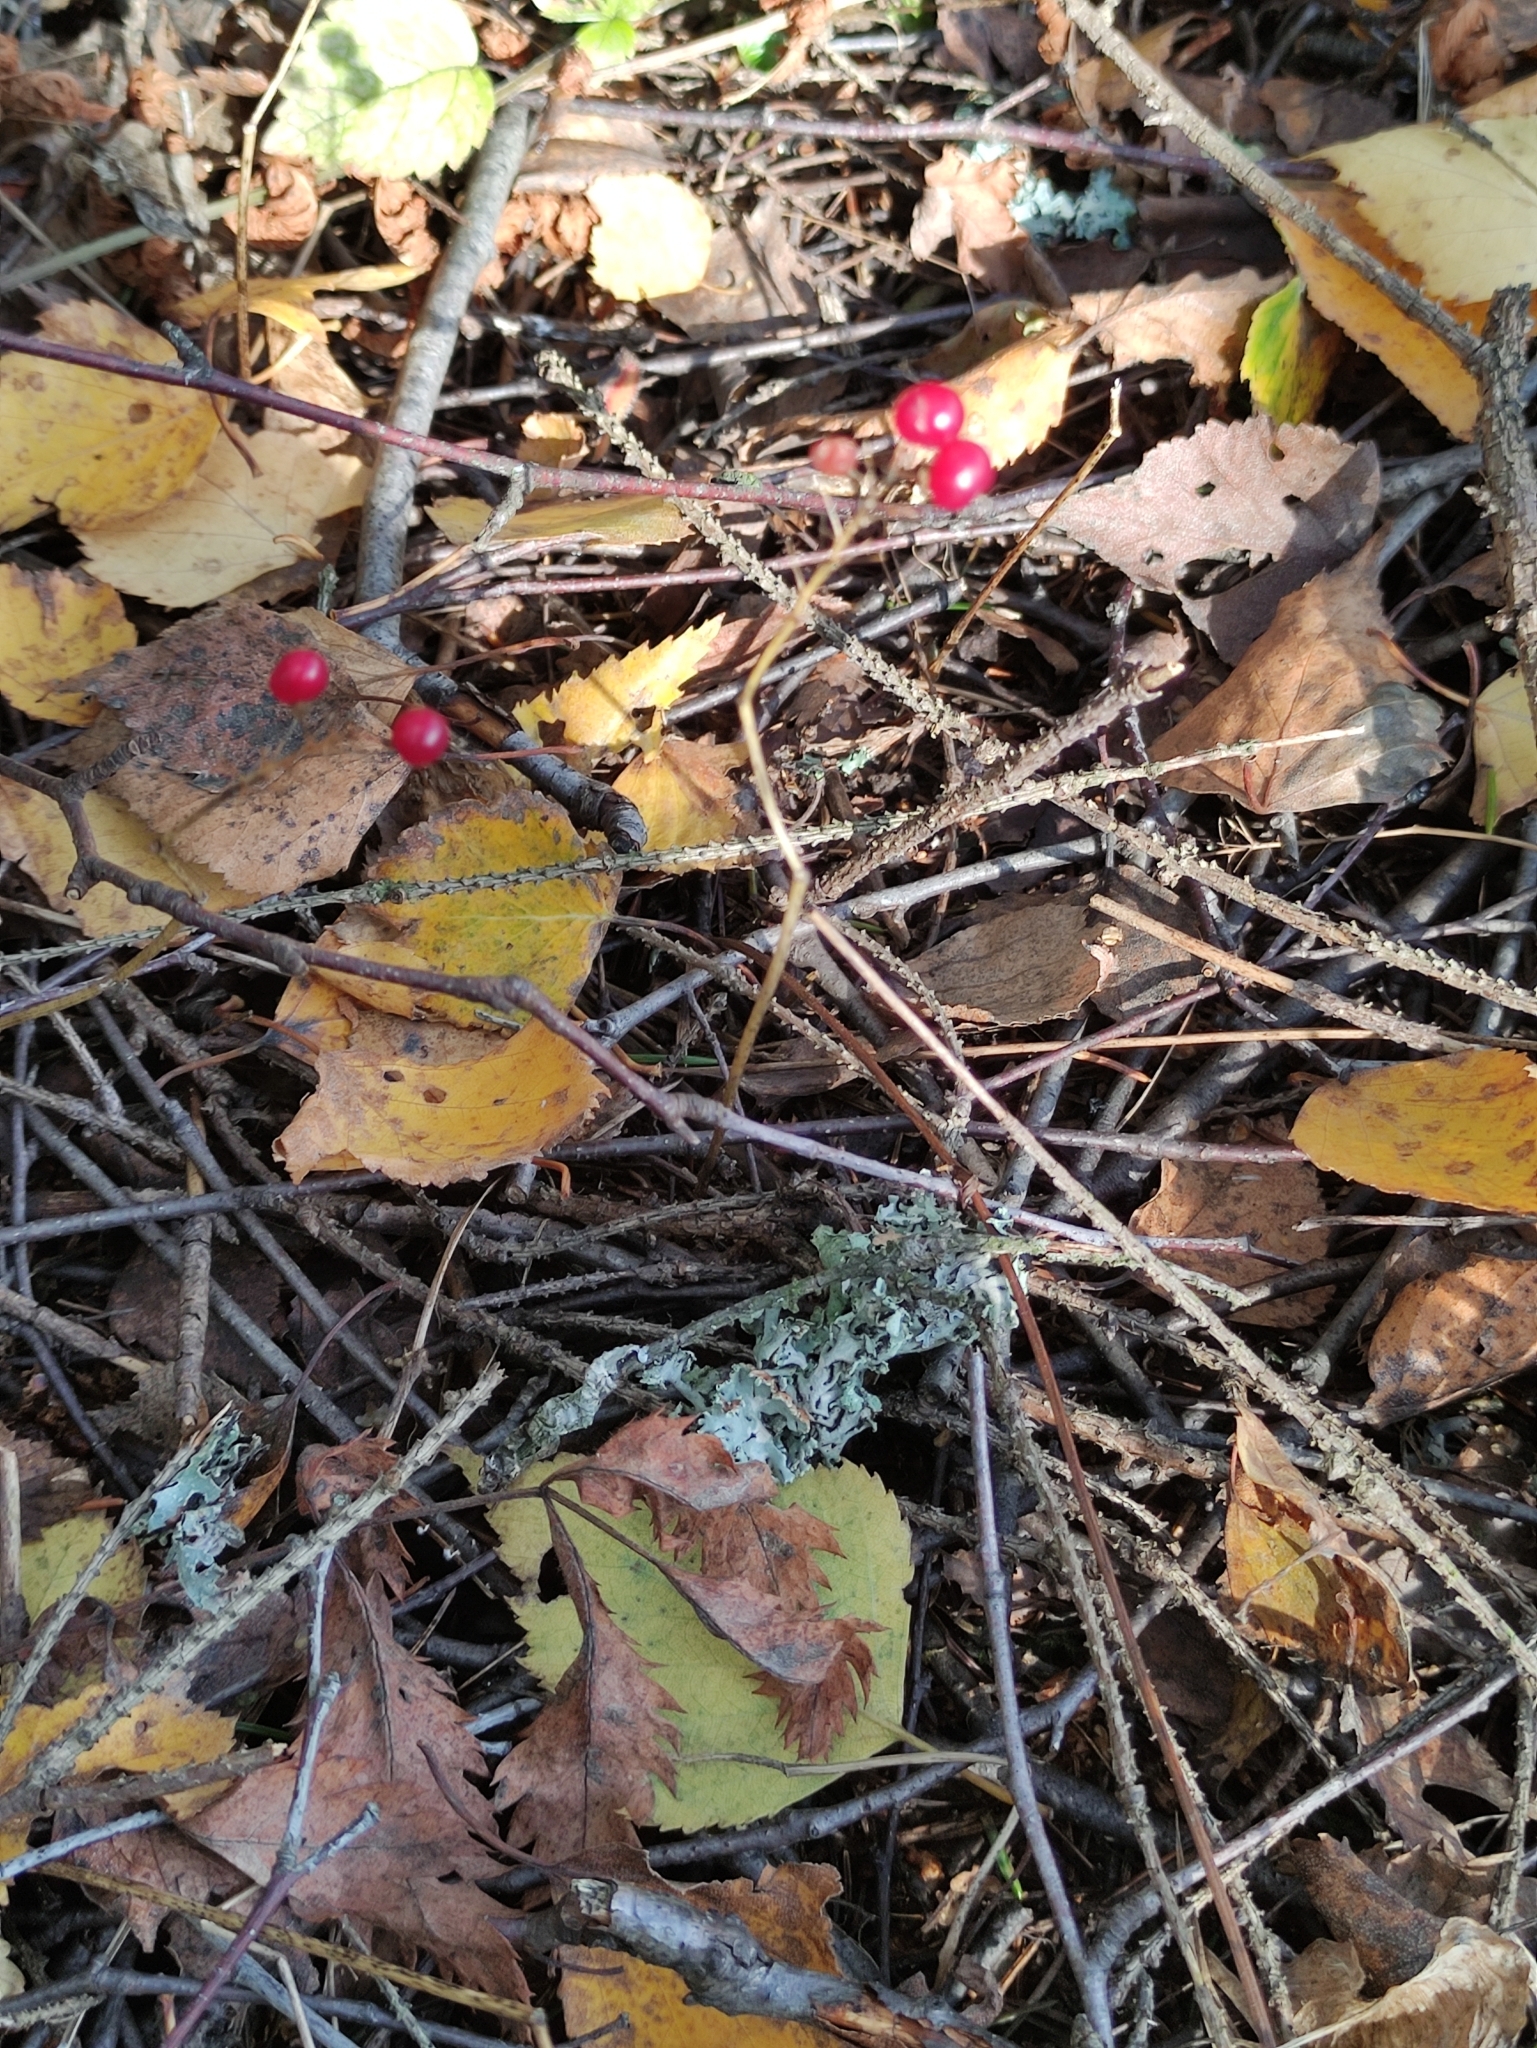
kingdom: Plantae
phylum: Tracheophyta
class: Liliopsida
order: Asparagales
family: Asparagaceae
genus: Maianthemum
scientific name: Maianthemum bifolium
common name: May lily
